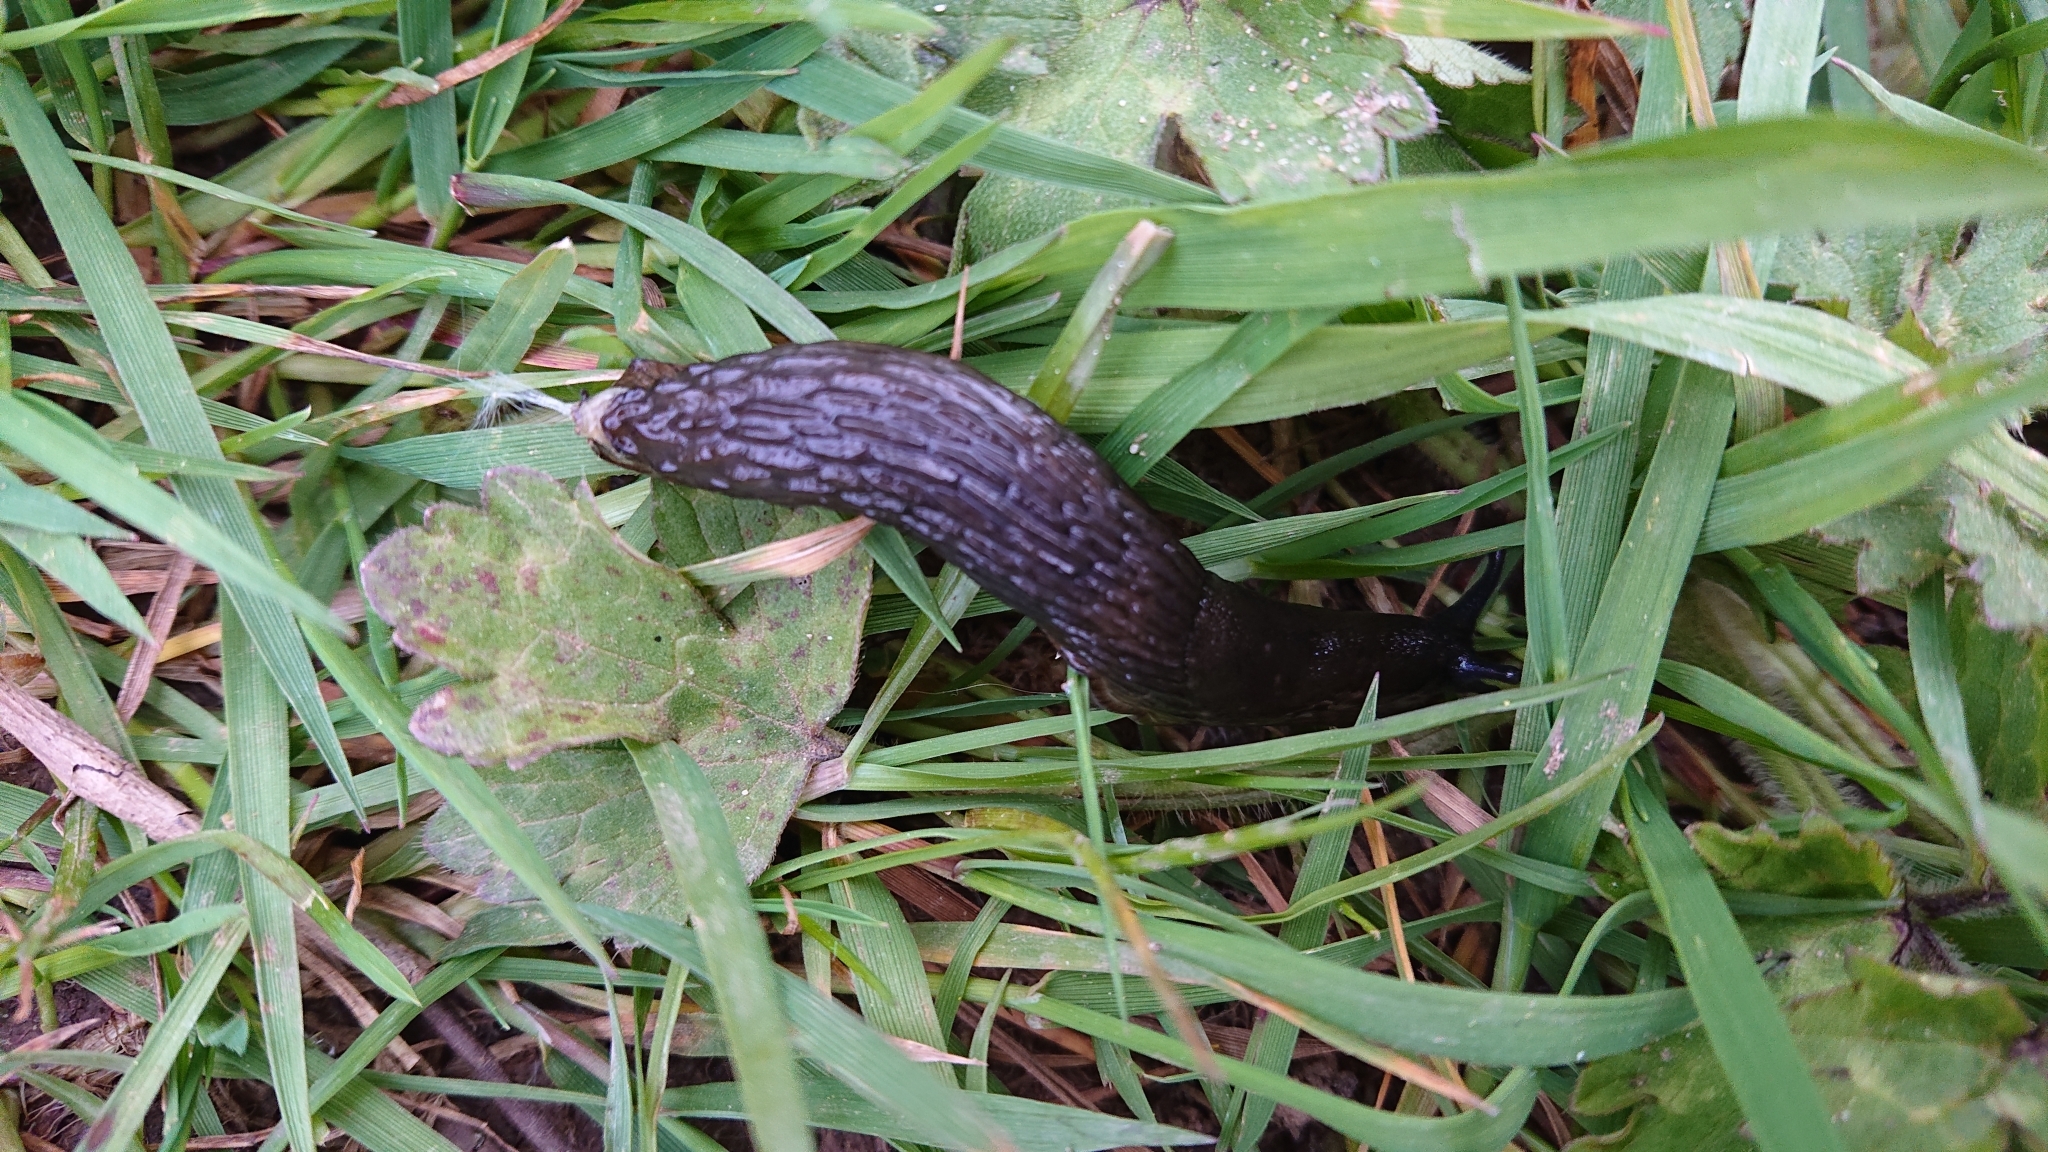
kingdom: Animalia
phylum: Mollusca
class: Gastropoda
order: Stylommatophora
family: Arionidae
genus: Arion
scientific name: Arion
